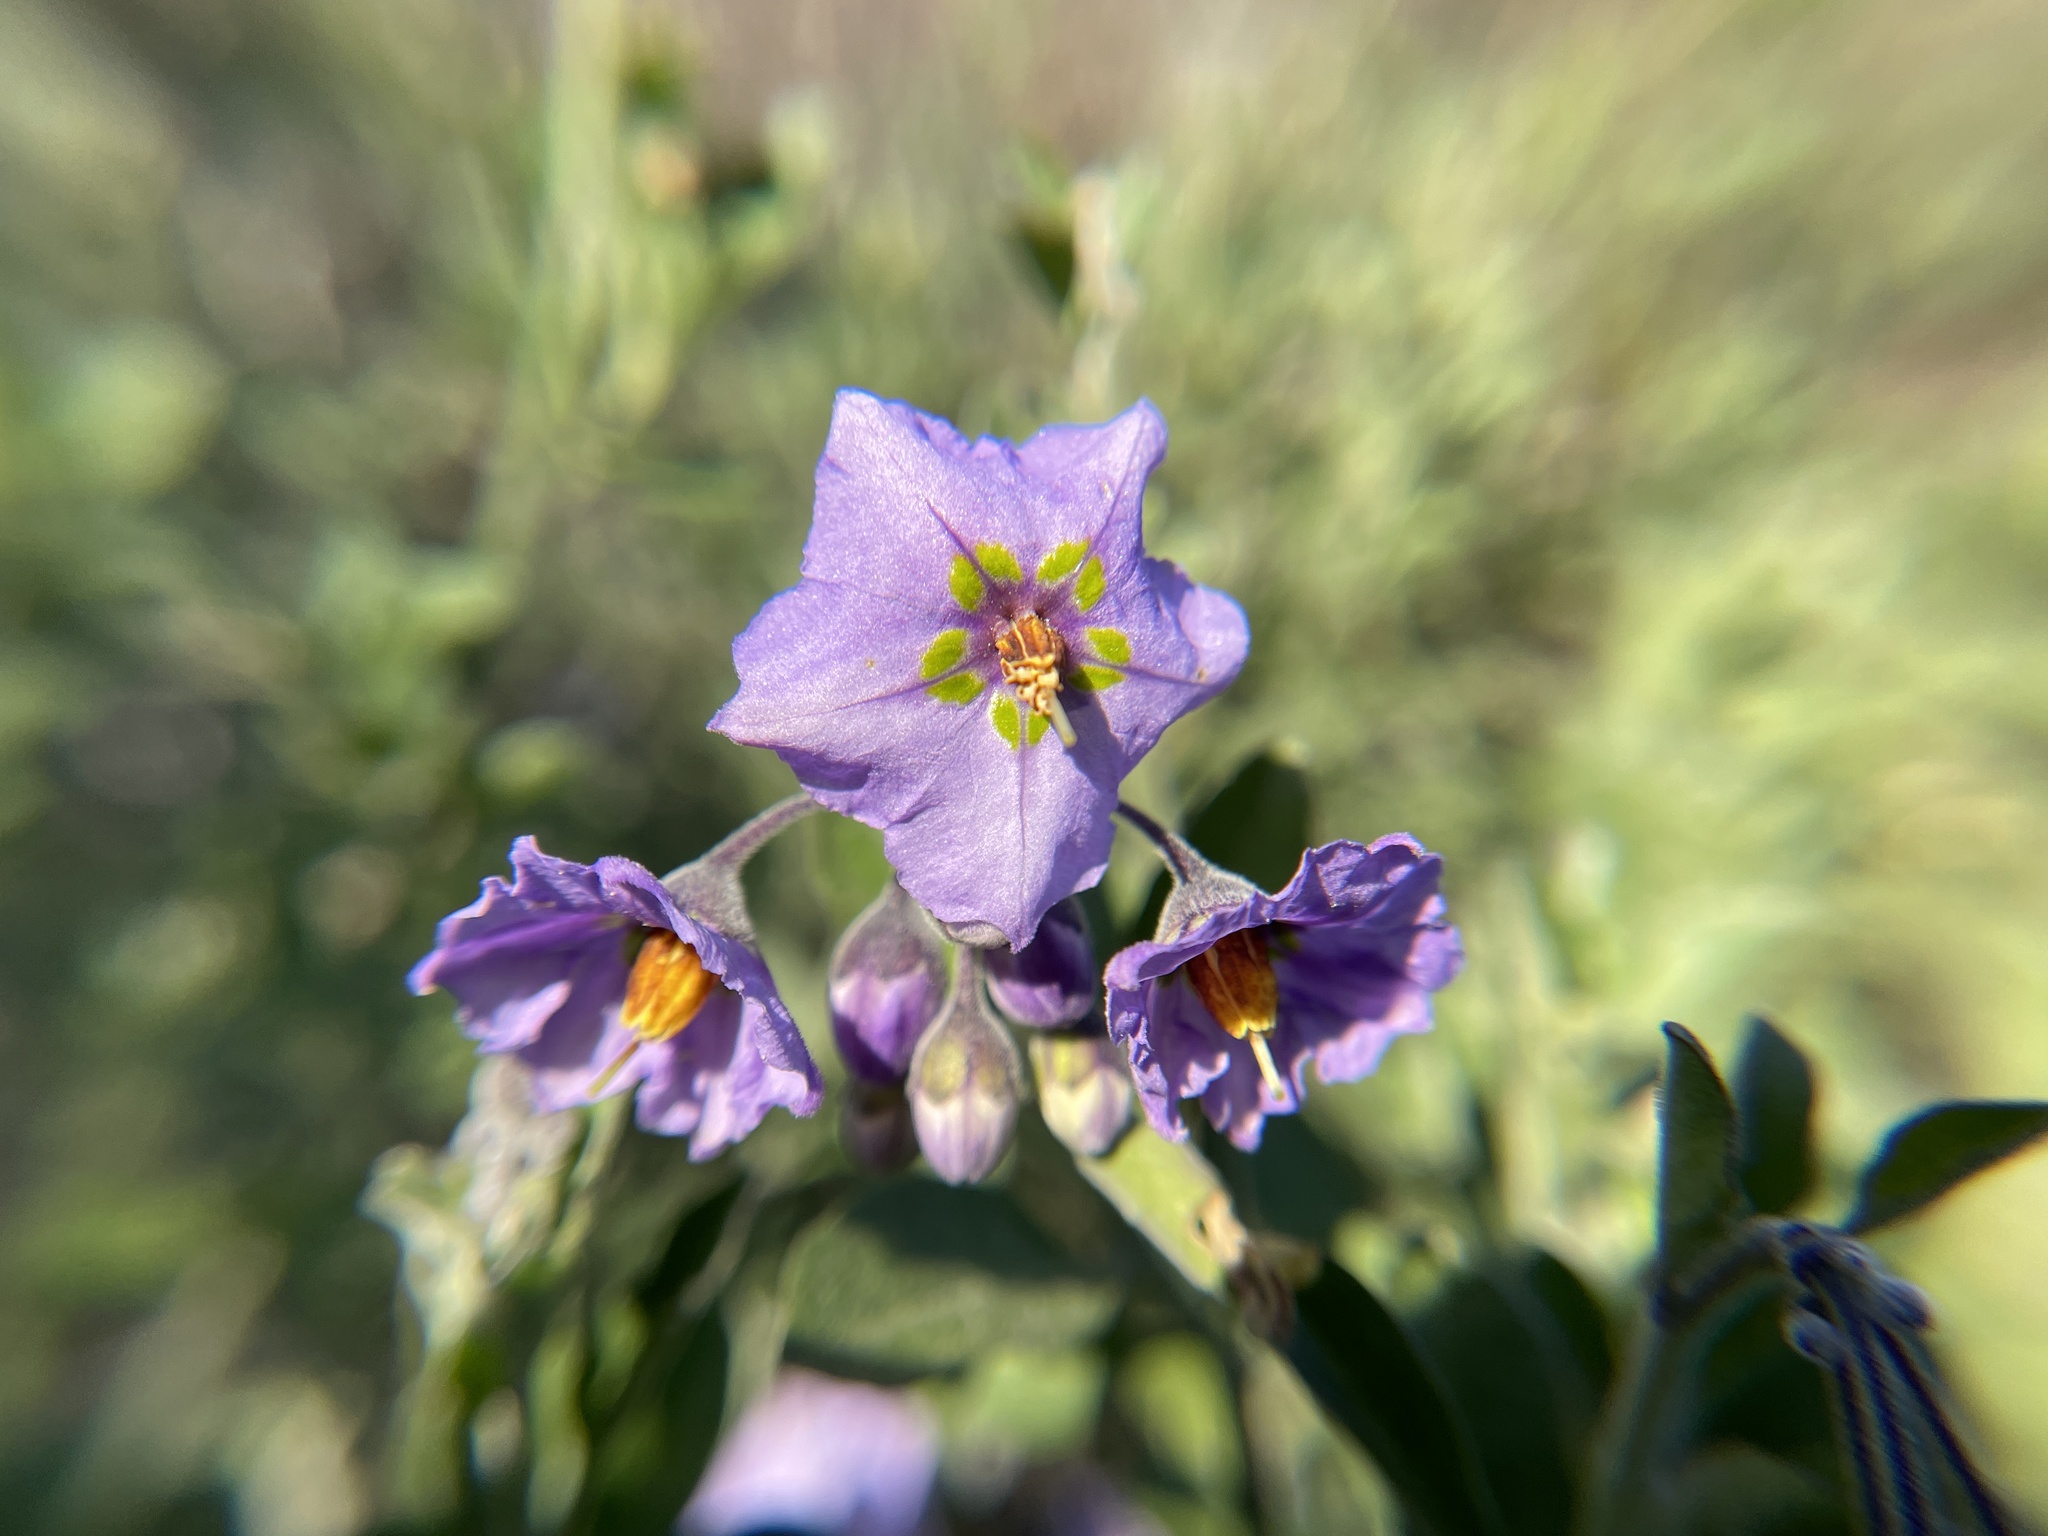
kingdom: Plantae
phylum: Tracheophyta
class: Magnoliopsida
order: Solanales
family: Solanaceae
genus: Solanum
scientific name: Solanum umbelliferum
